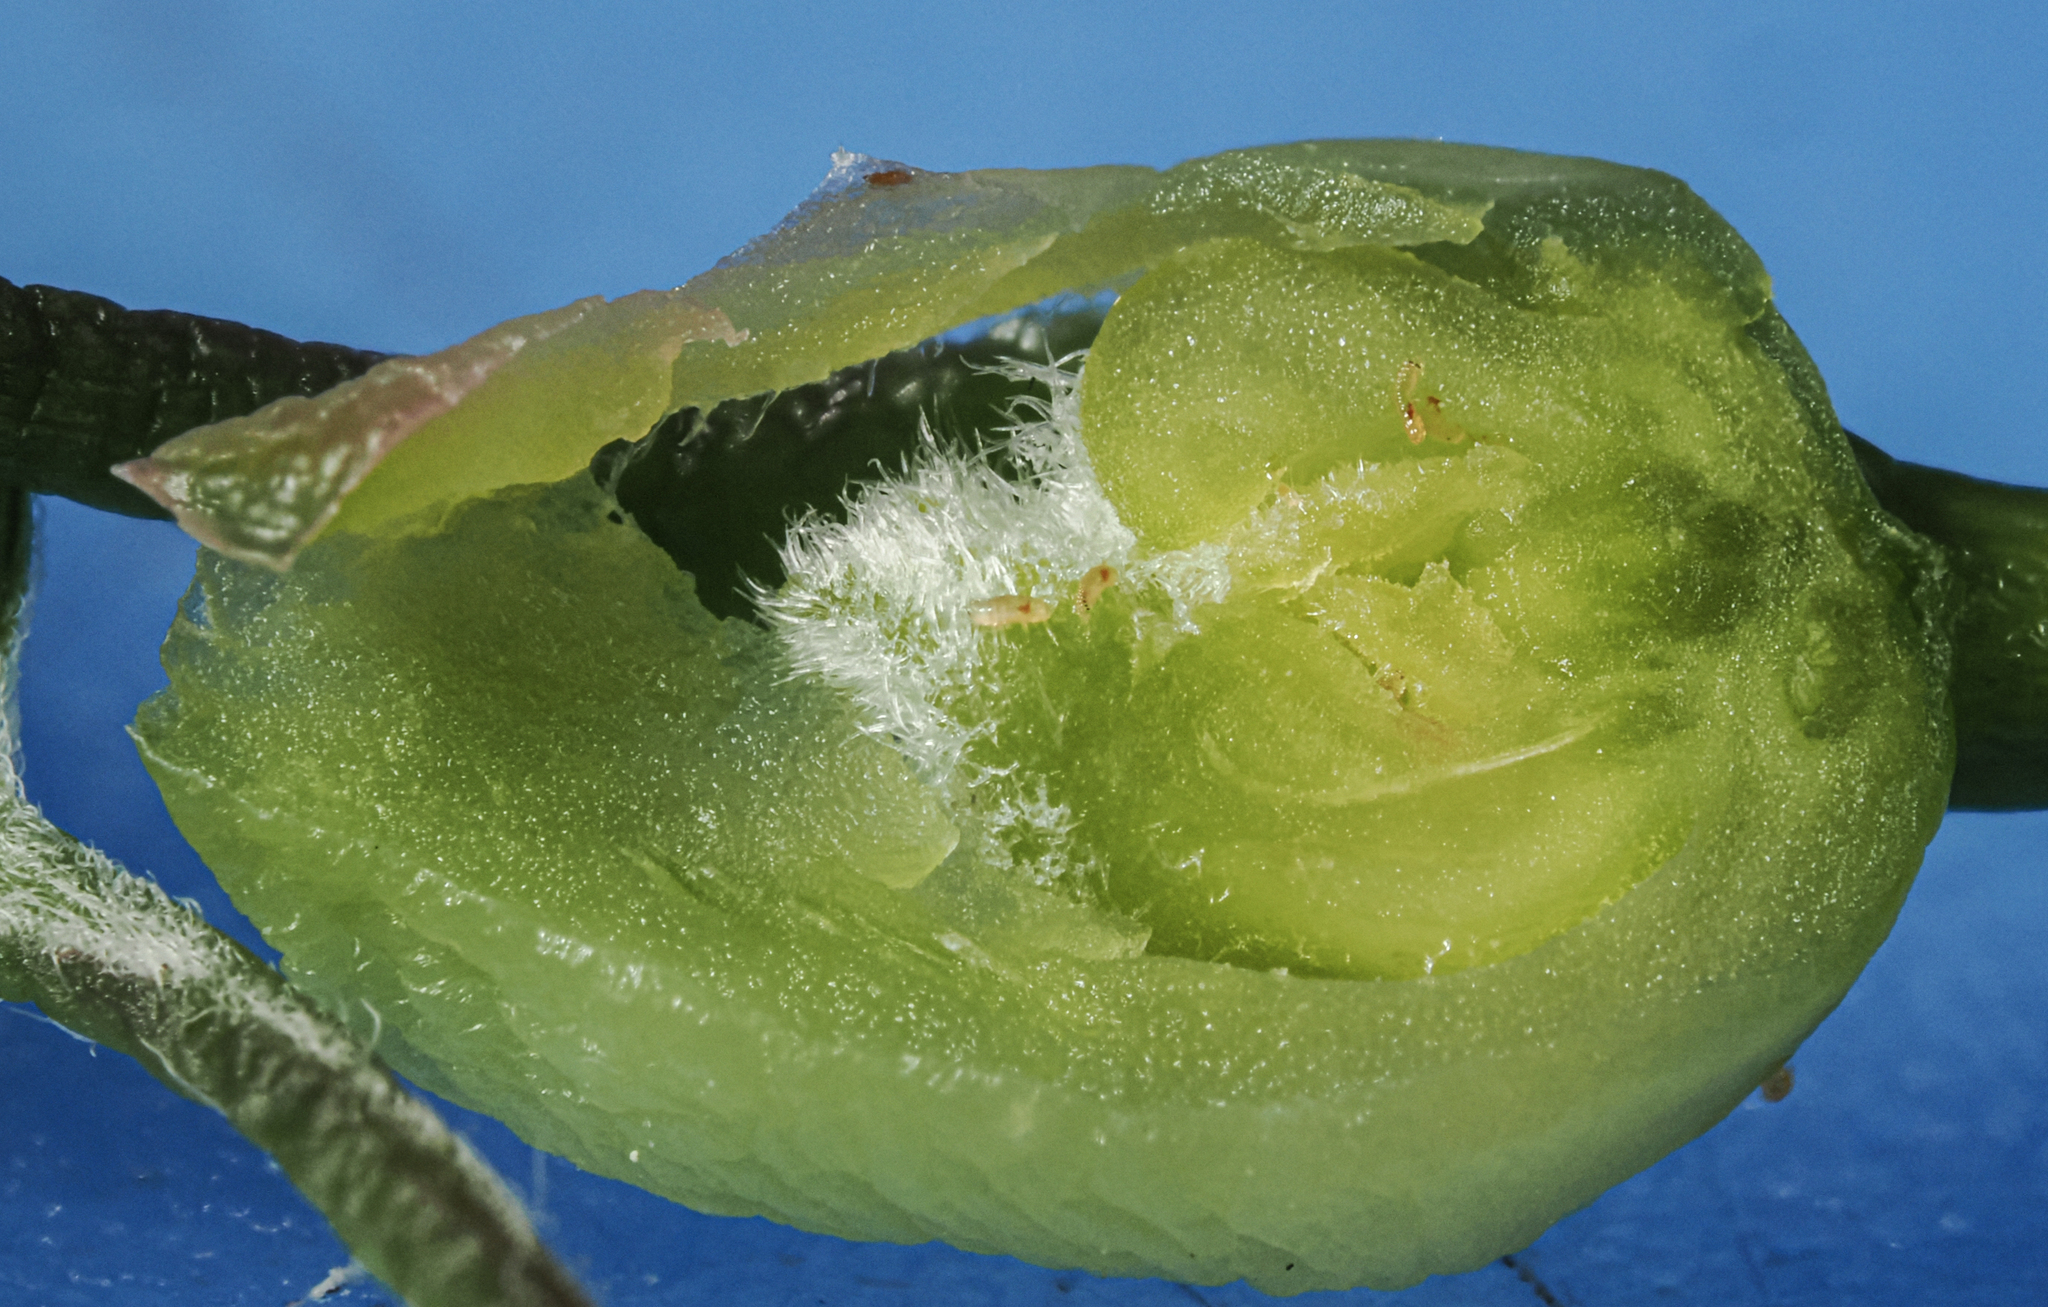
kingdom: Animalia
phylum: Arthropoda
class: Insecta
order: Diptera
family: Cecidomyiidae
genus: Contarinia
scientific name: Contarinia negundinis
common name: Boxelder budgall midge
